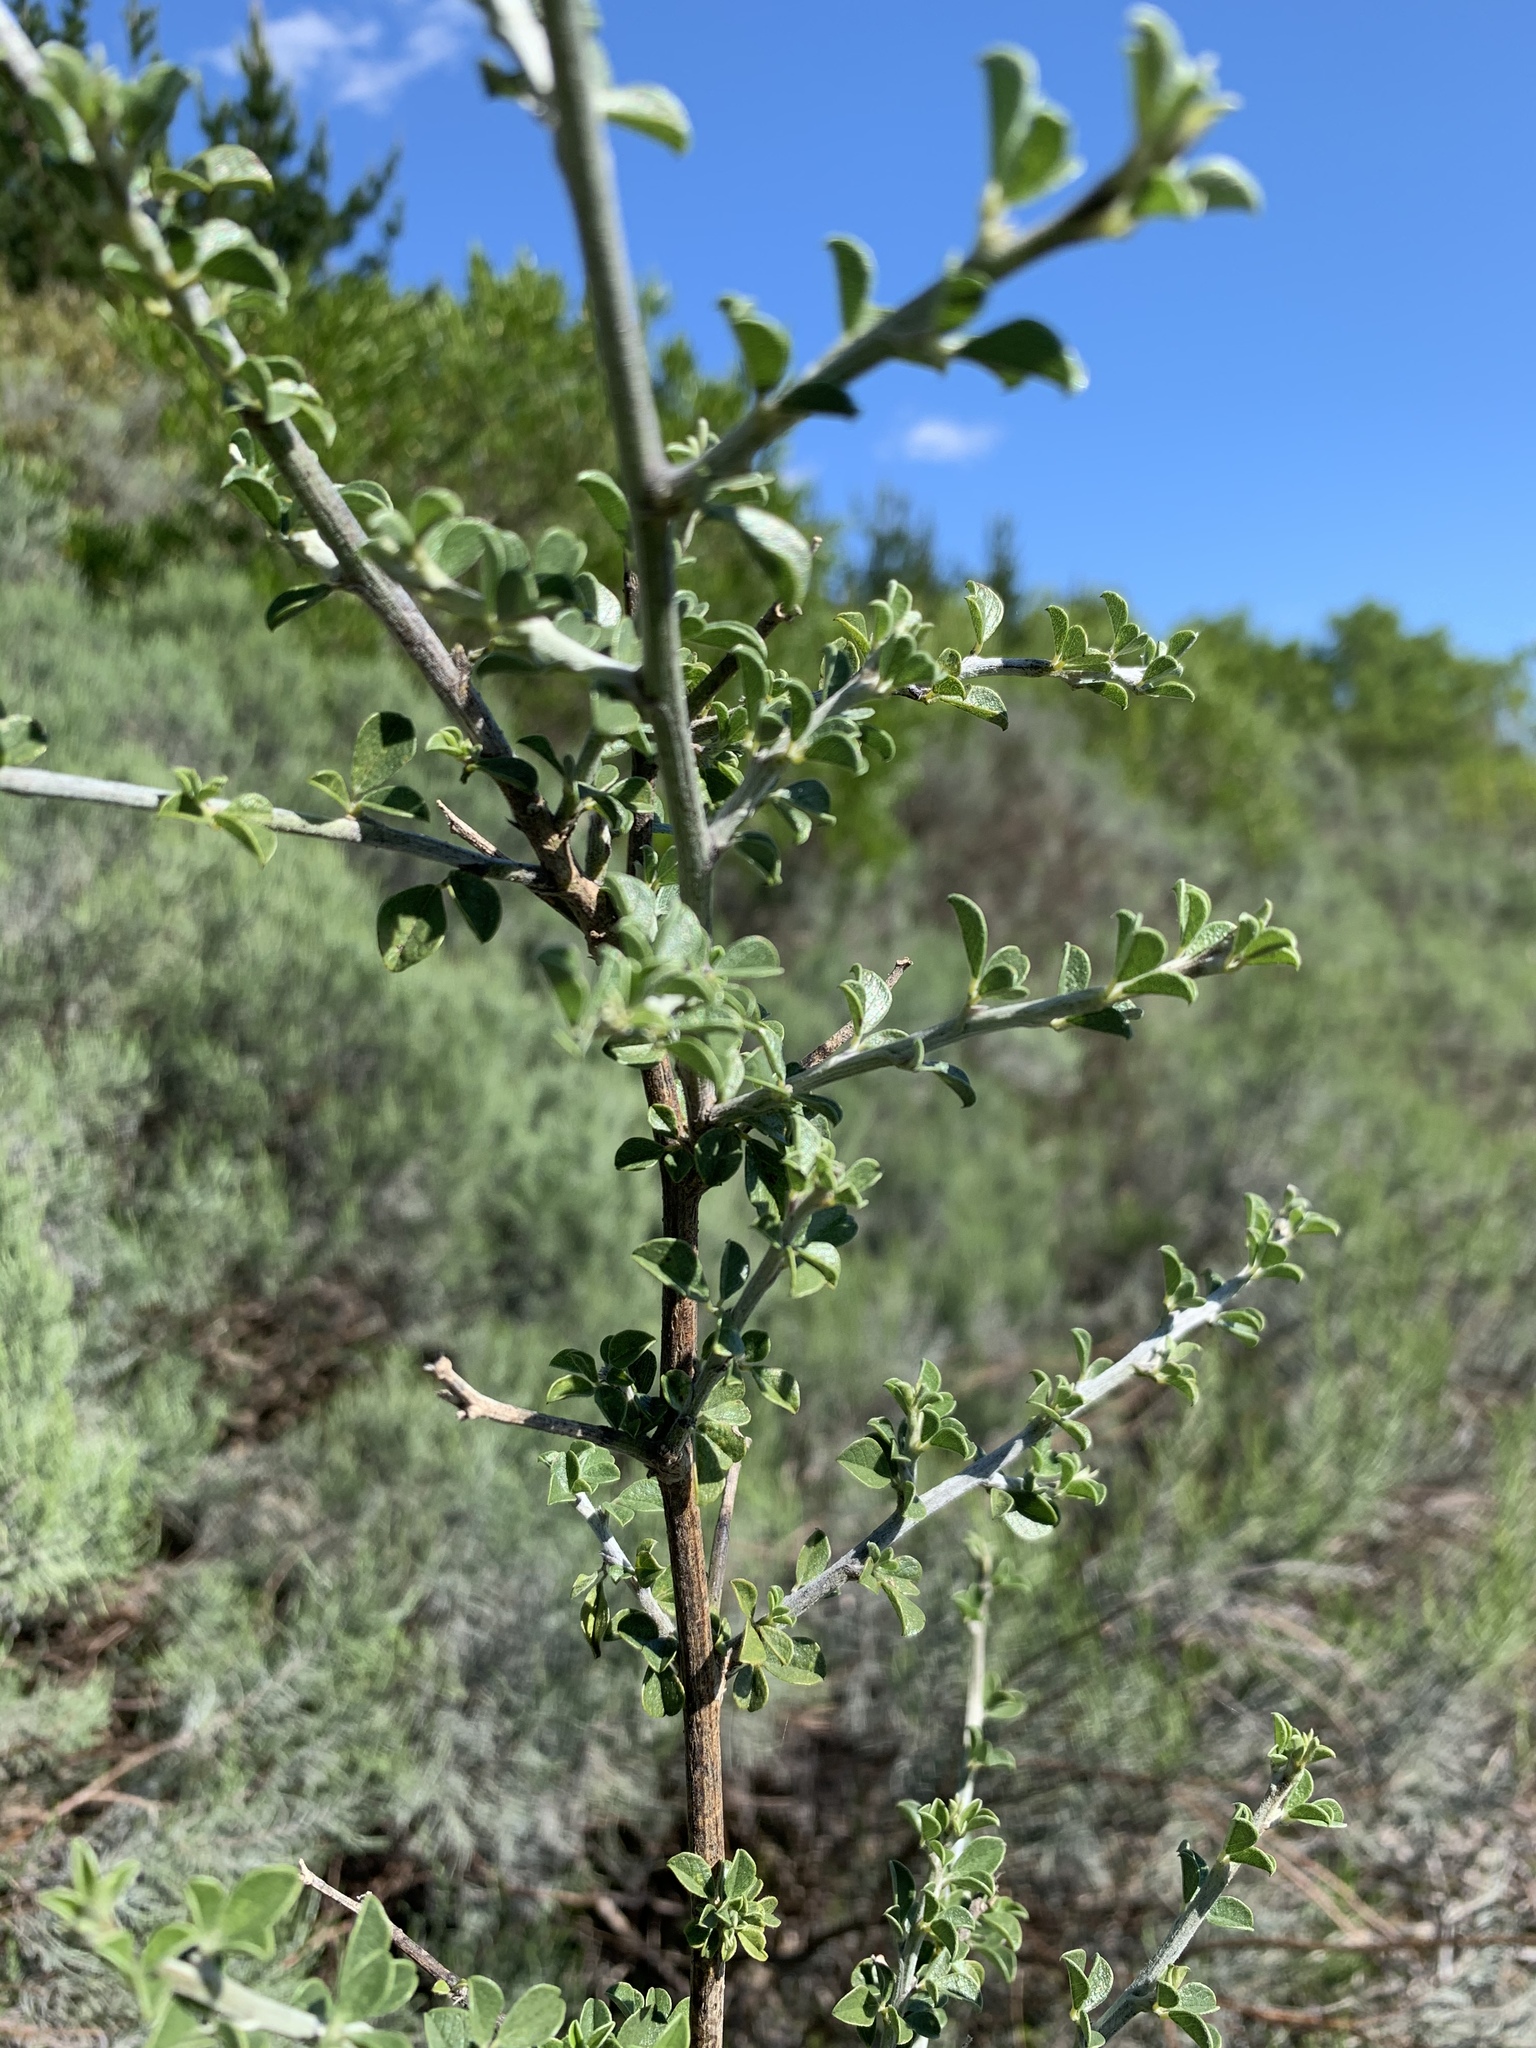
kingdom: Plantae
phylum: Tracheophyta
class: Magnoliopsida
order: Fabales
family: Fabaceae
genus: Psoralea
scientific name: Psoralea hirta
